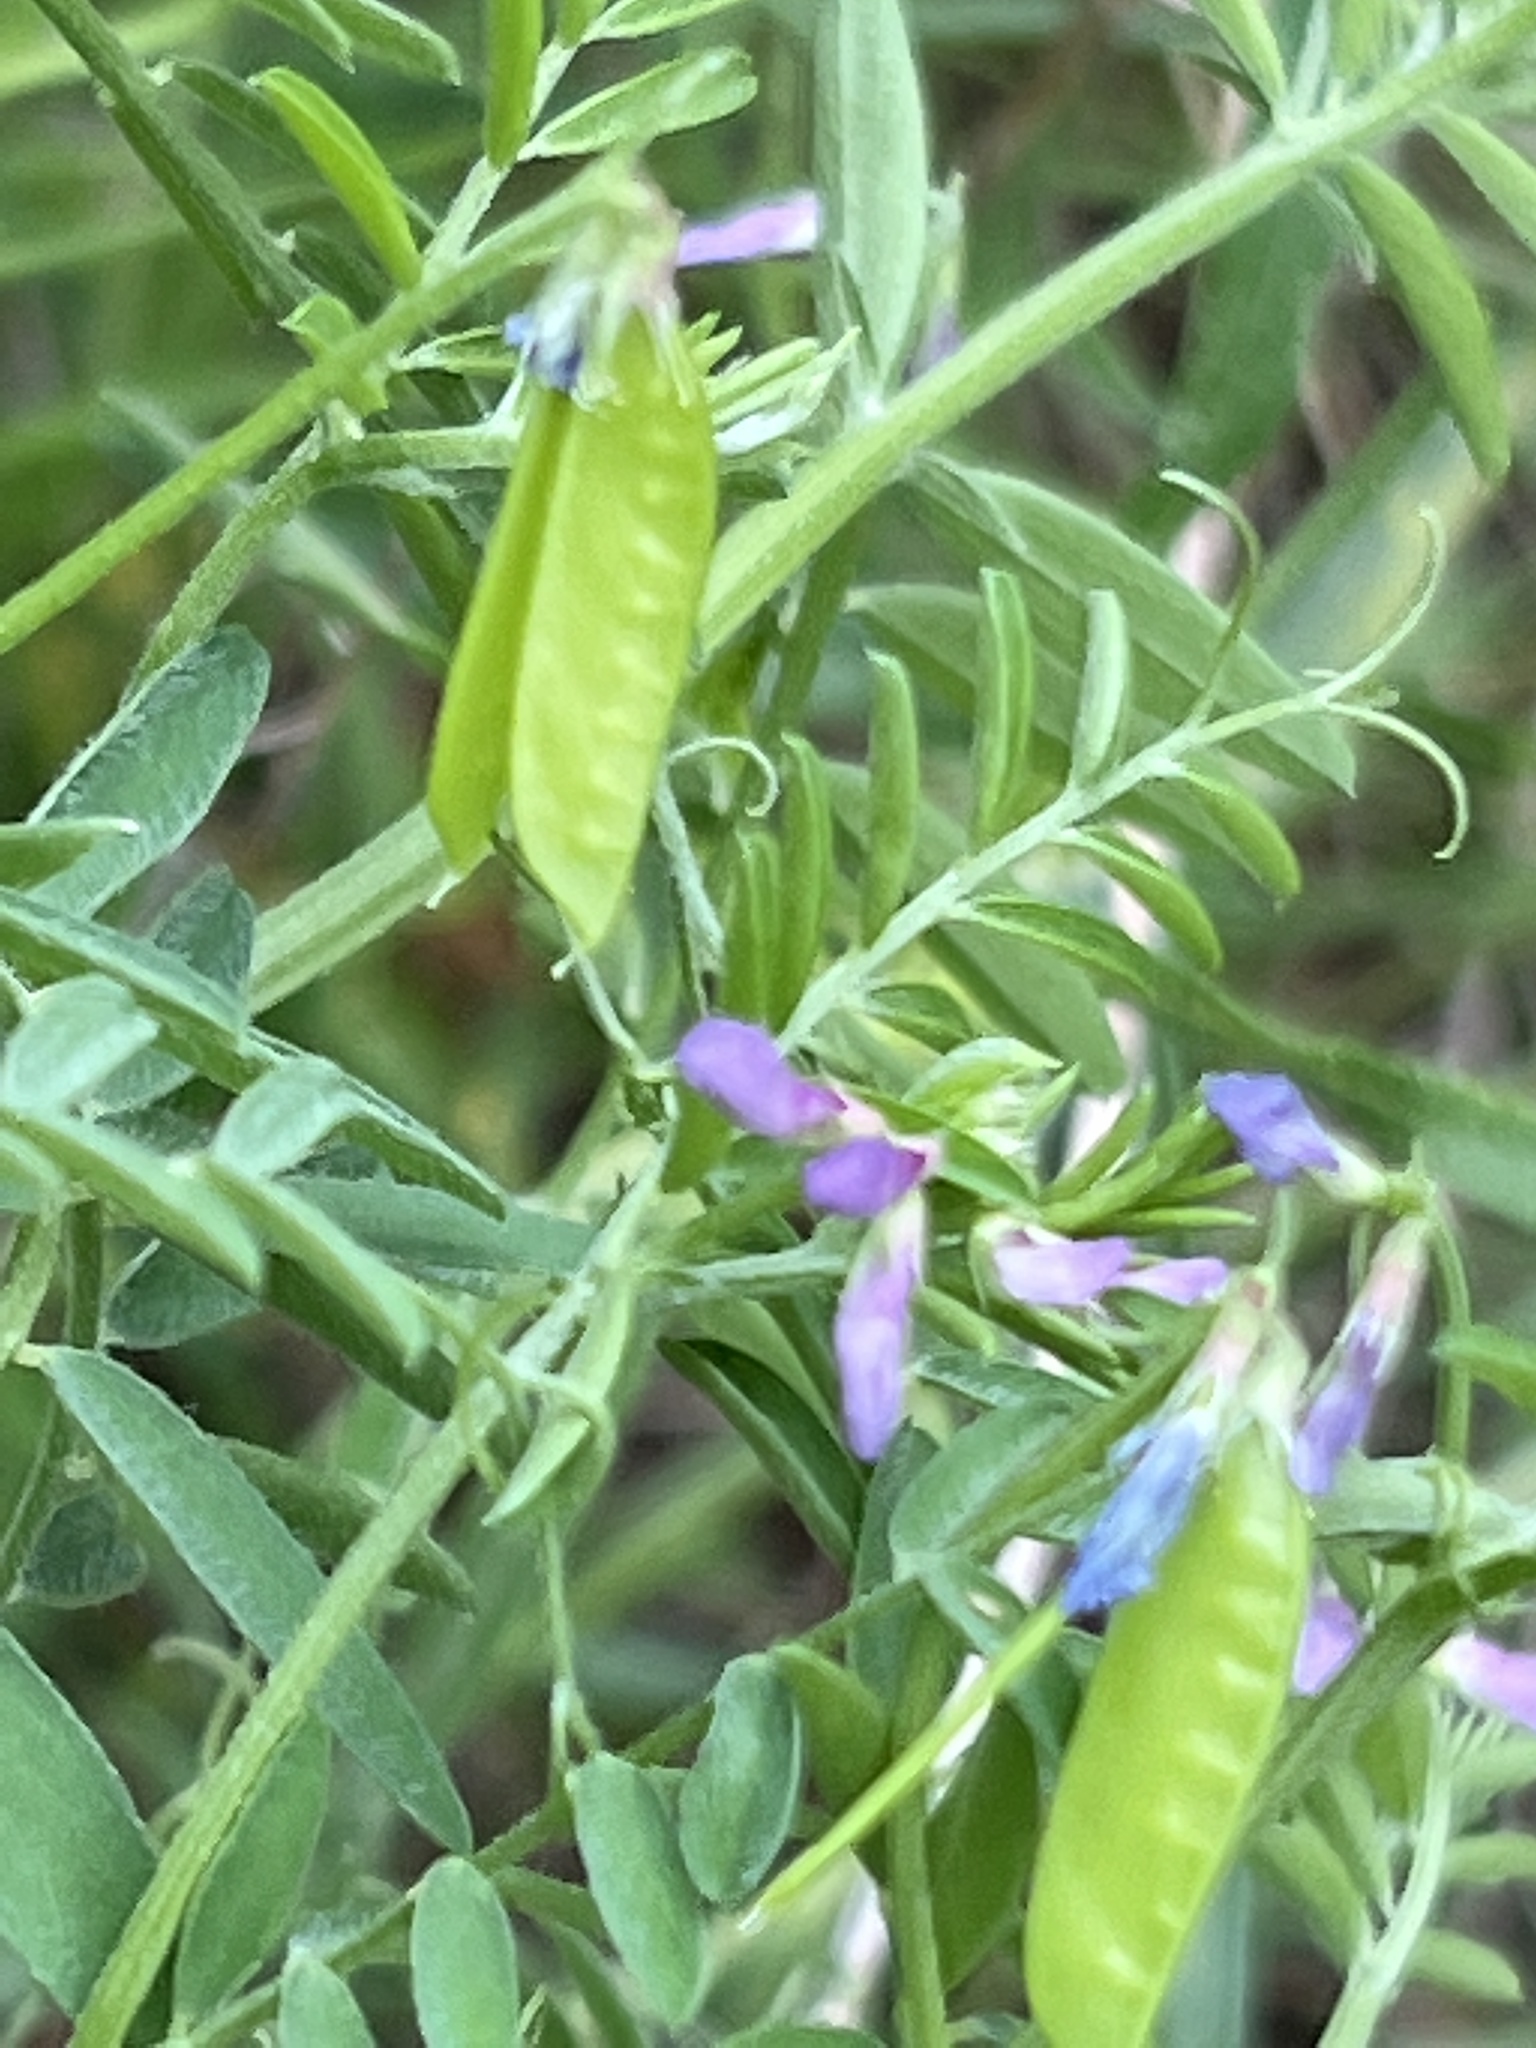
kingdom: Plantae
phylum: Tracheophyta
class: Magnoliopsida
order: Fabales
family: Fabaceae
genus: Vicia
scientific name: Vicia ludoviciana
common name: Louisiana vetch
